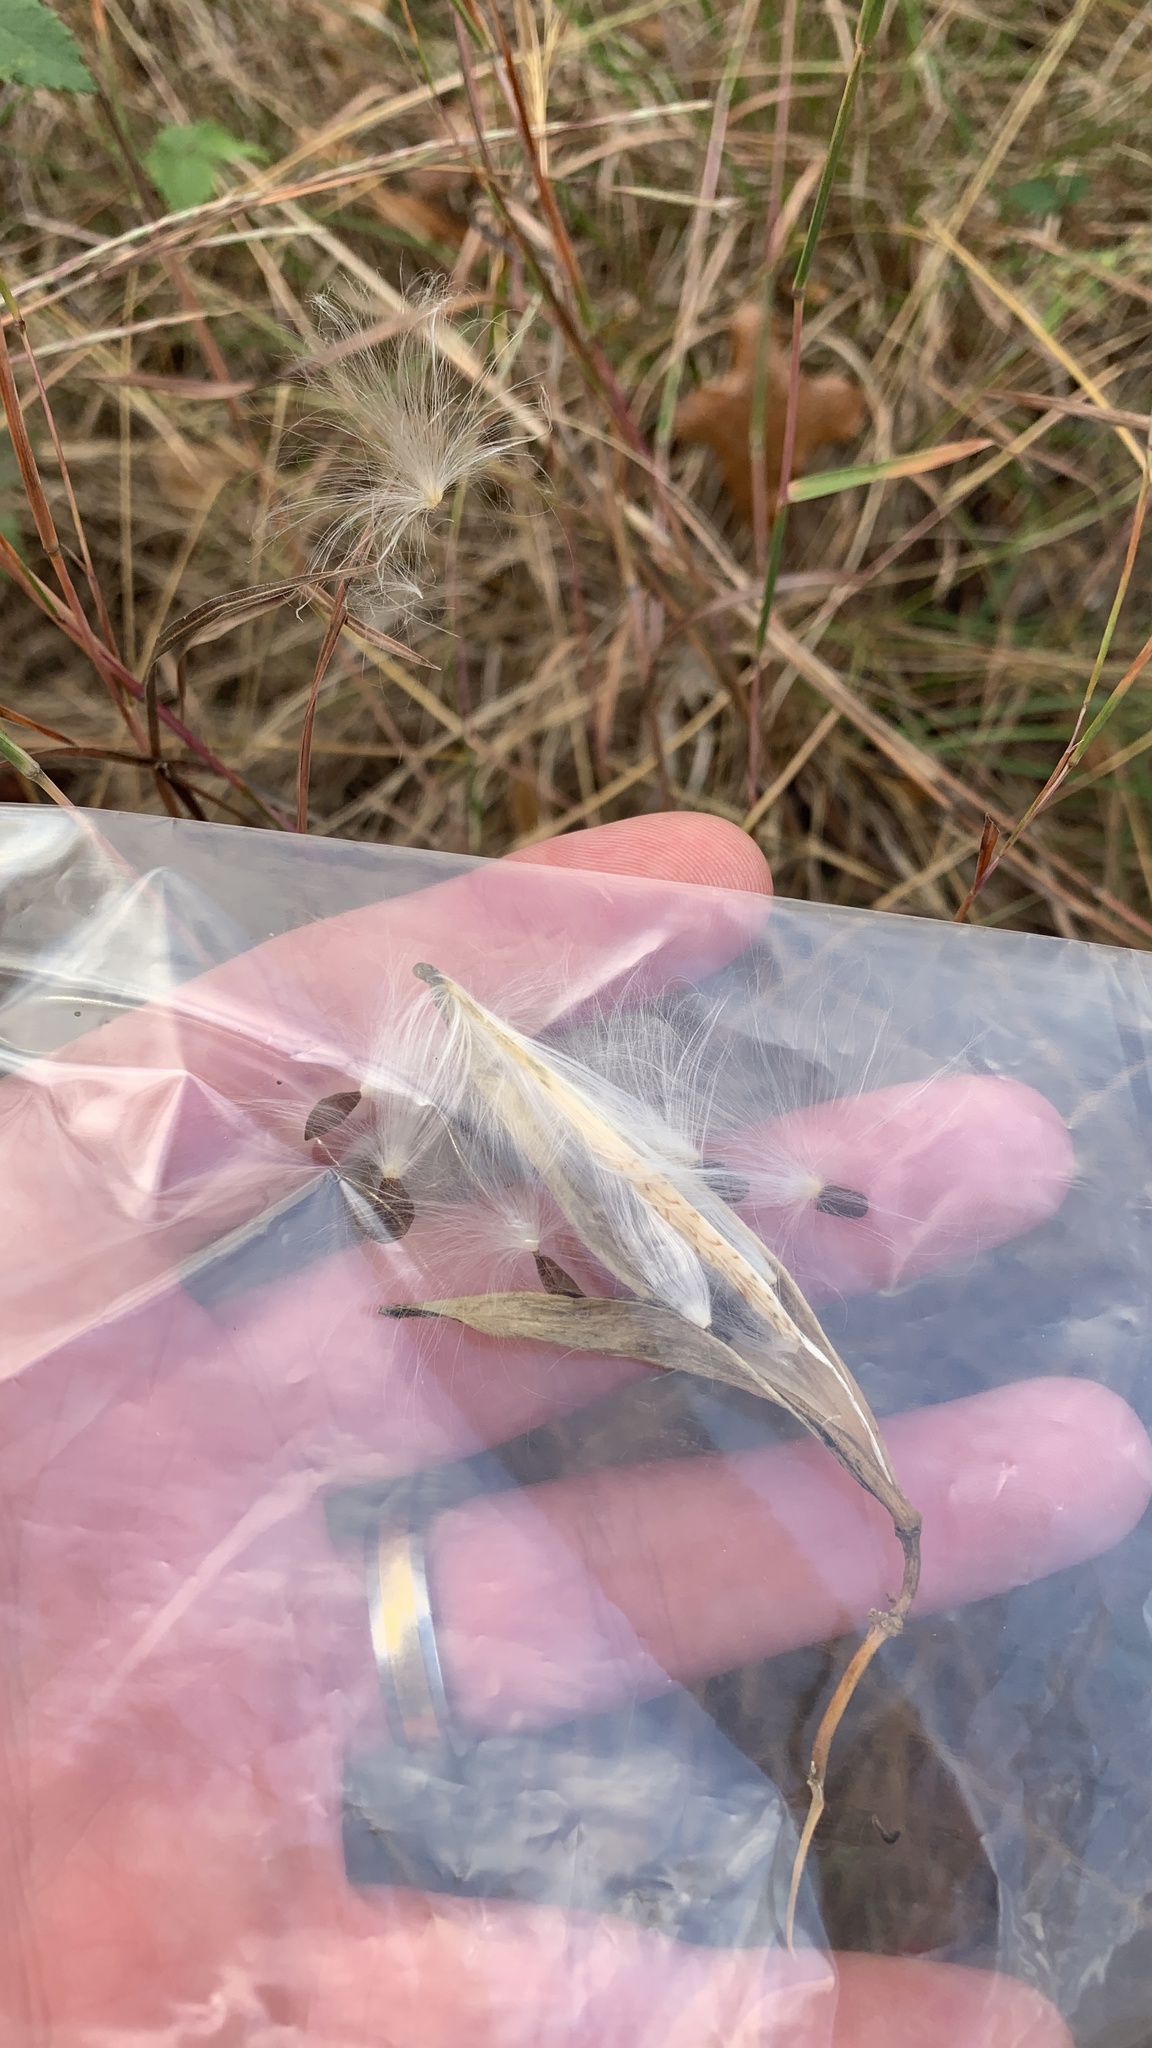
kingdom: Plantae
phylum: Tracheophyta
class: Magnoliopsida
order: Gentianales
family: Apocynaceae
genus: Asclepias
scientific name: Asclepias verticillata
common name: Eastern whorled milkweed
